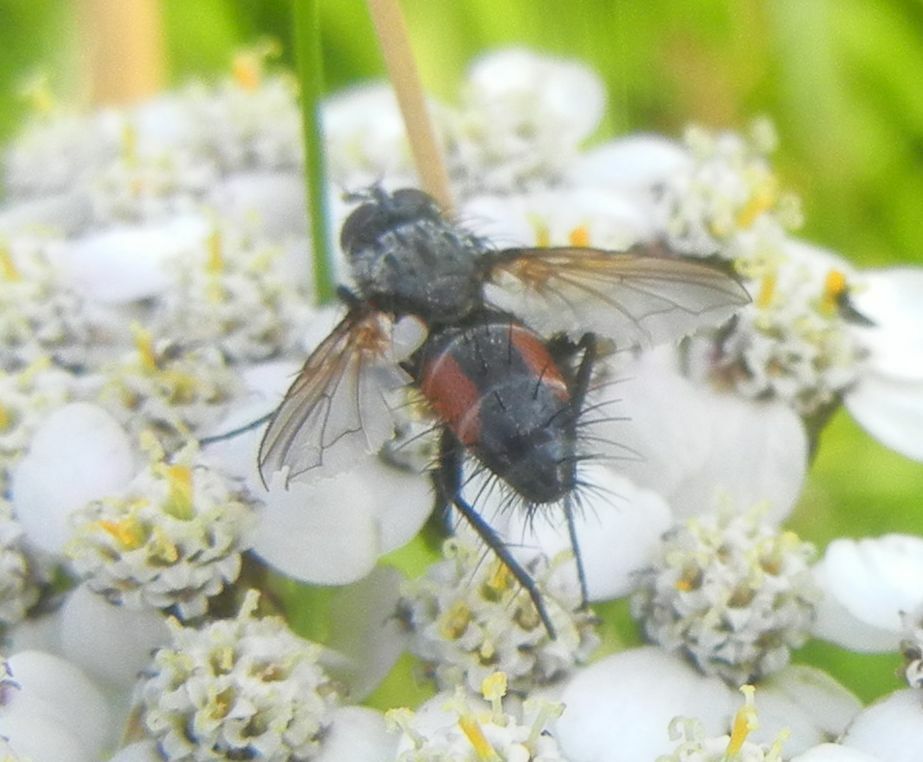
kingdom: Animalia
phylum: Arthropoda
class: Insecta
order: Diptera
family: Tachinidae
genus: Eriothrix
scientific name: Eriothrix rufomaculatus
